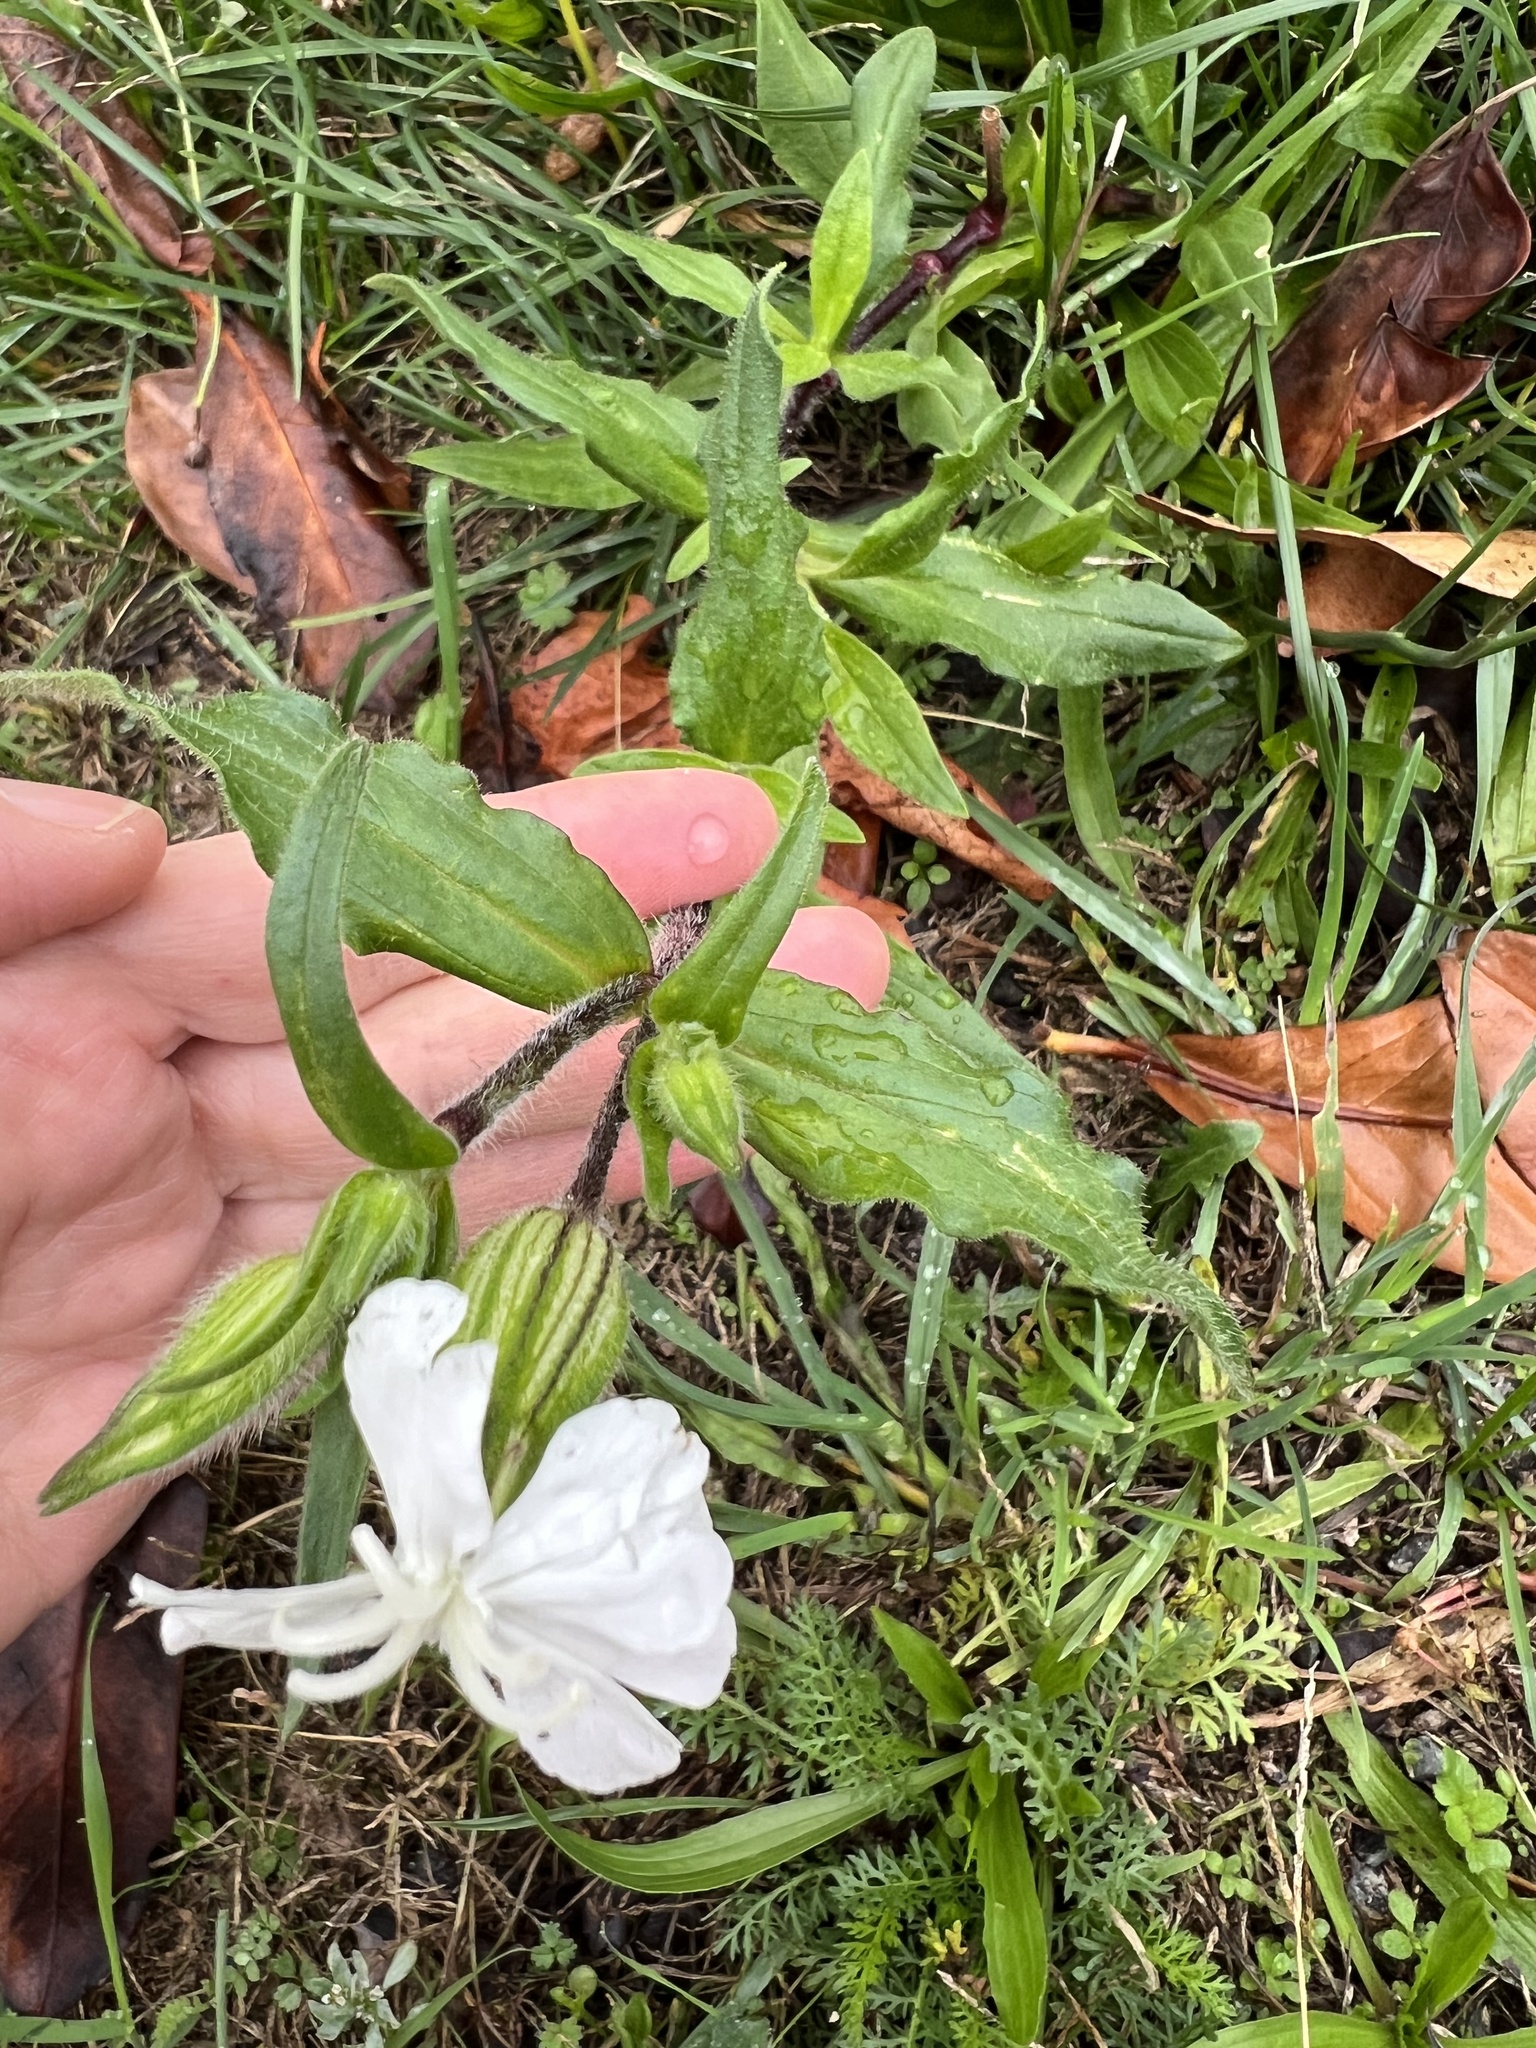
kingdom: Plantae
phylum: Tracheophyta
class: Magnoliopsida
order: Caryophyllales
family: Caryophyllaceae
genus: Silene
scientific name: Silene latifolia
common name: White campion
